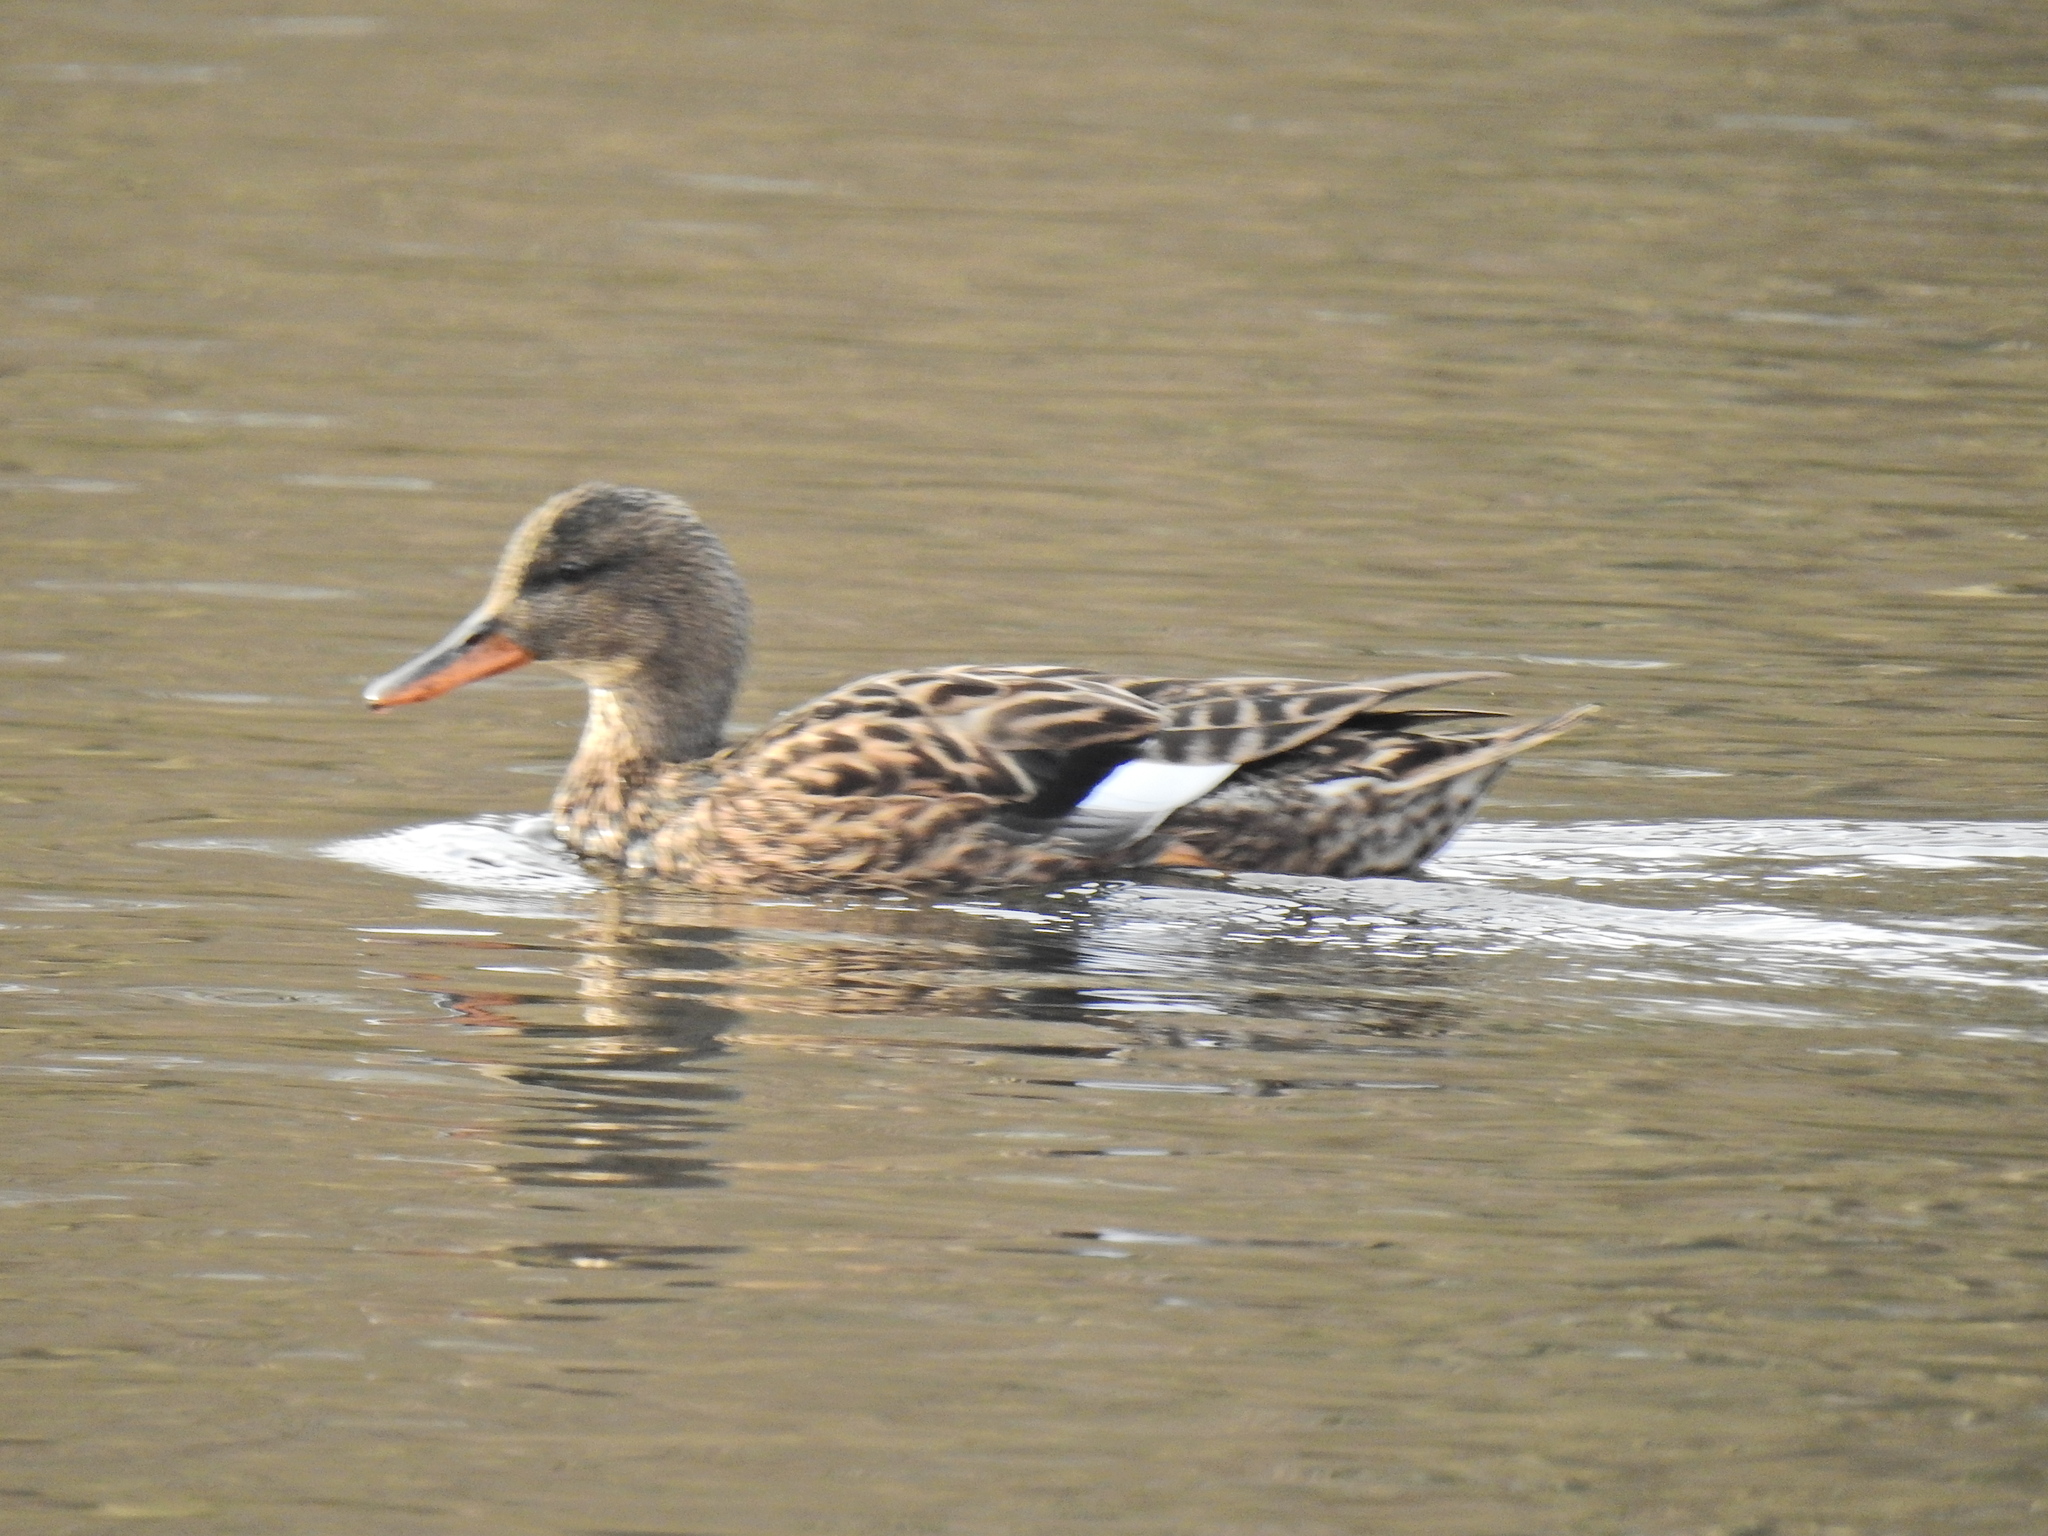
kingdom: Animalia
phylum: Chordata
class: Aves
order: Anseriformes
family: Anatidae
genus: Anas
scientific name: Anas platyrhynchos
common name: Mallard
